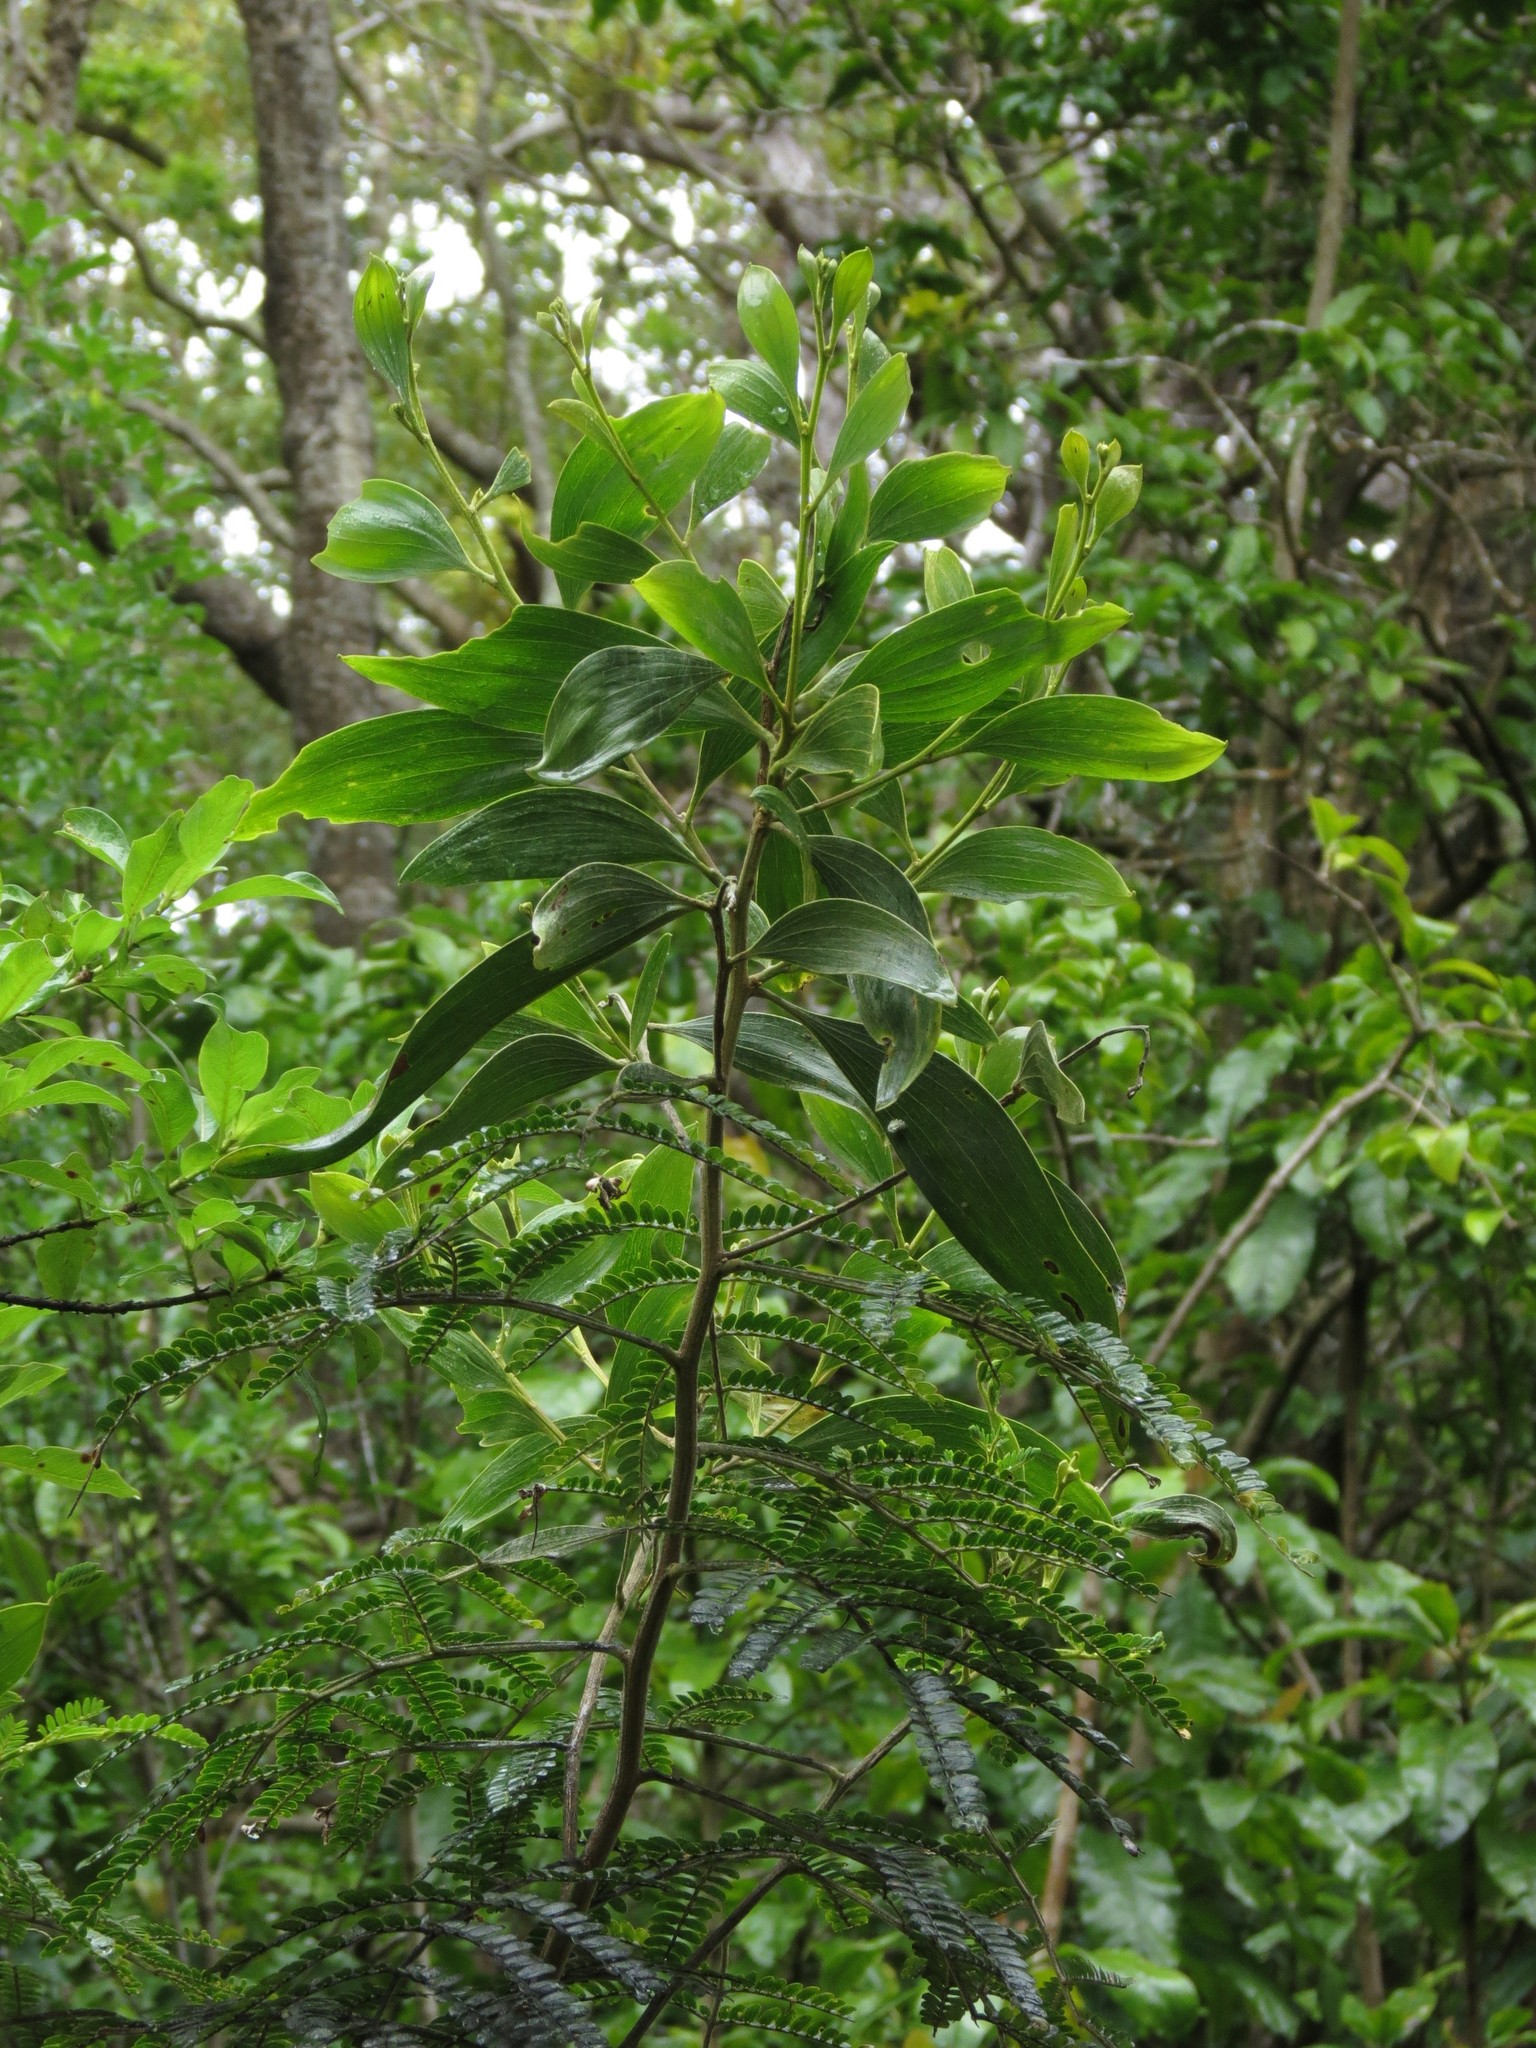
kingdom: Plantae
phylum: Tracheophyta
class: Magnoliopsida
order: Fabales
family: Fabaceae
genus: Acacia
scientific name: Acacia koa
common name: Gray koa
